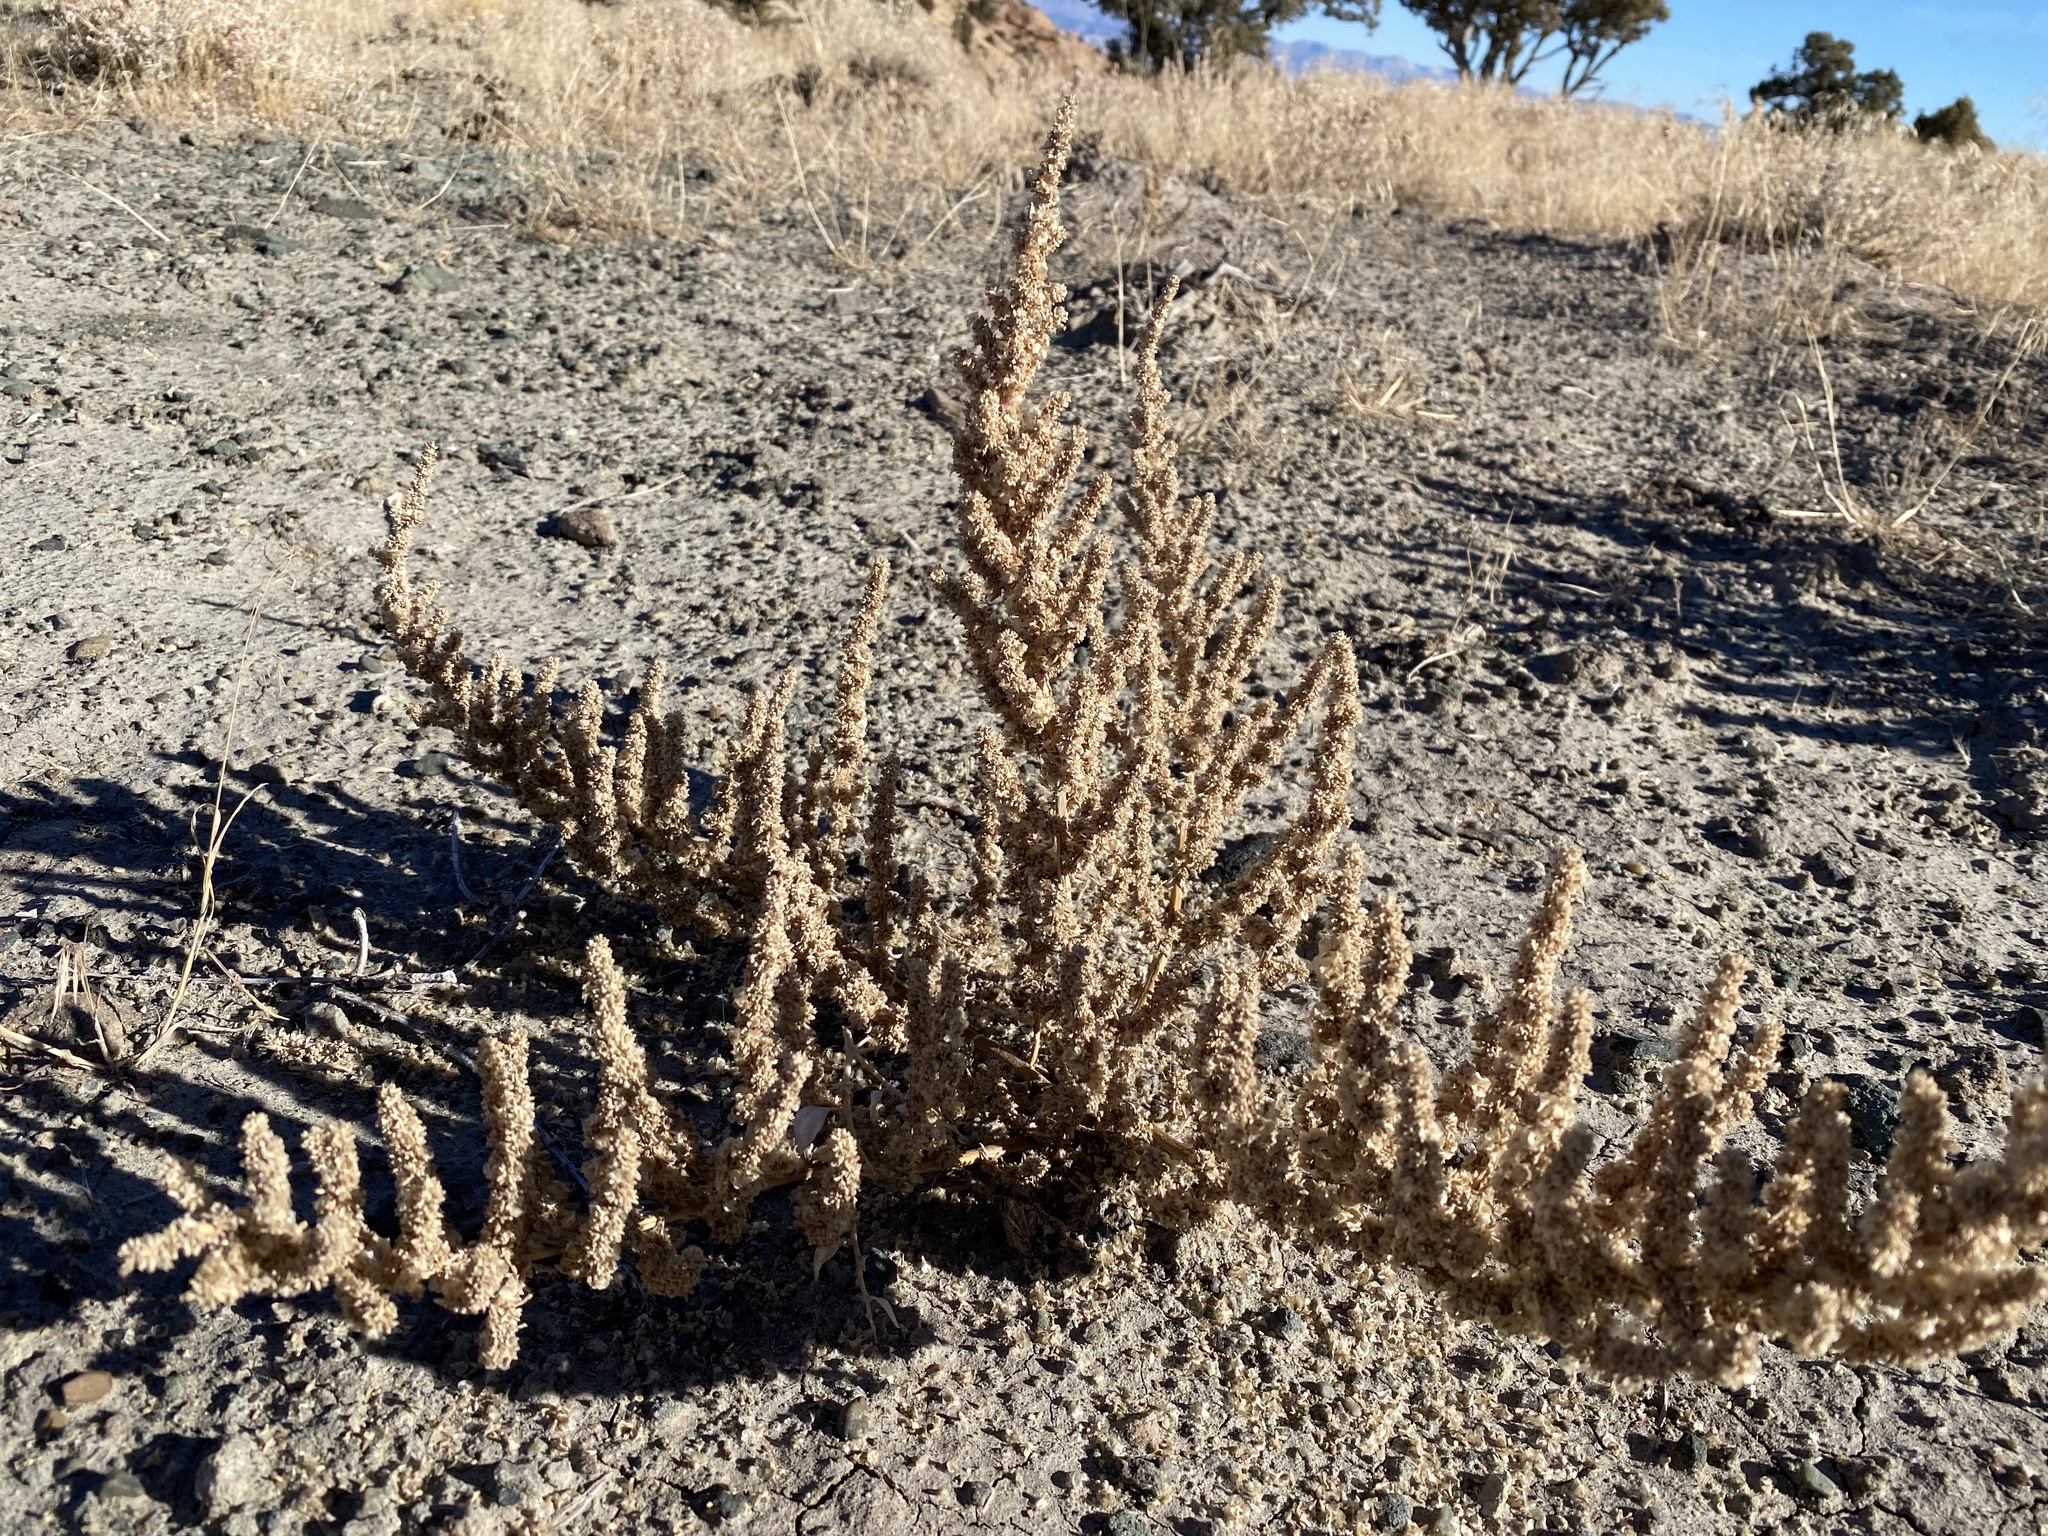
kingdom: Plantae
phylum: Tracheophyta
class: Magnoliopsida
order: Caryophyllales
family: Amaranthaceae
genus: Halogeton
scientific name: Halogeton glomeratus
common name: Saltlover
